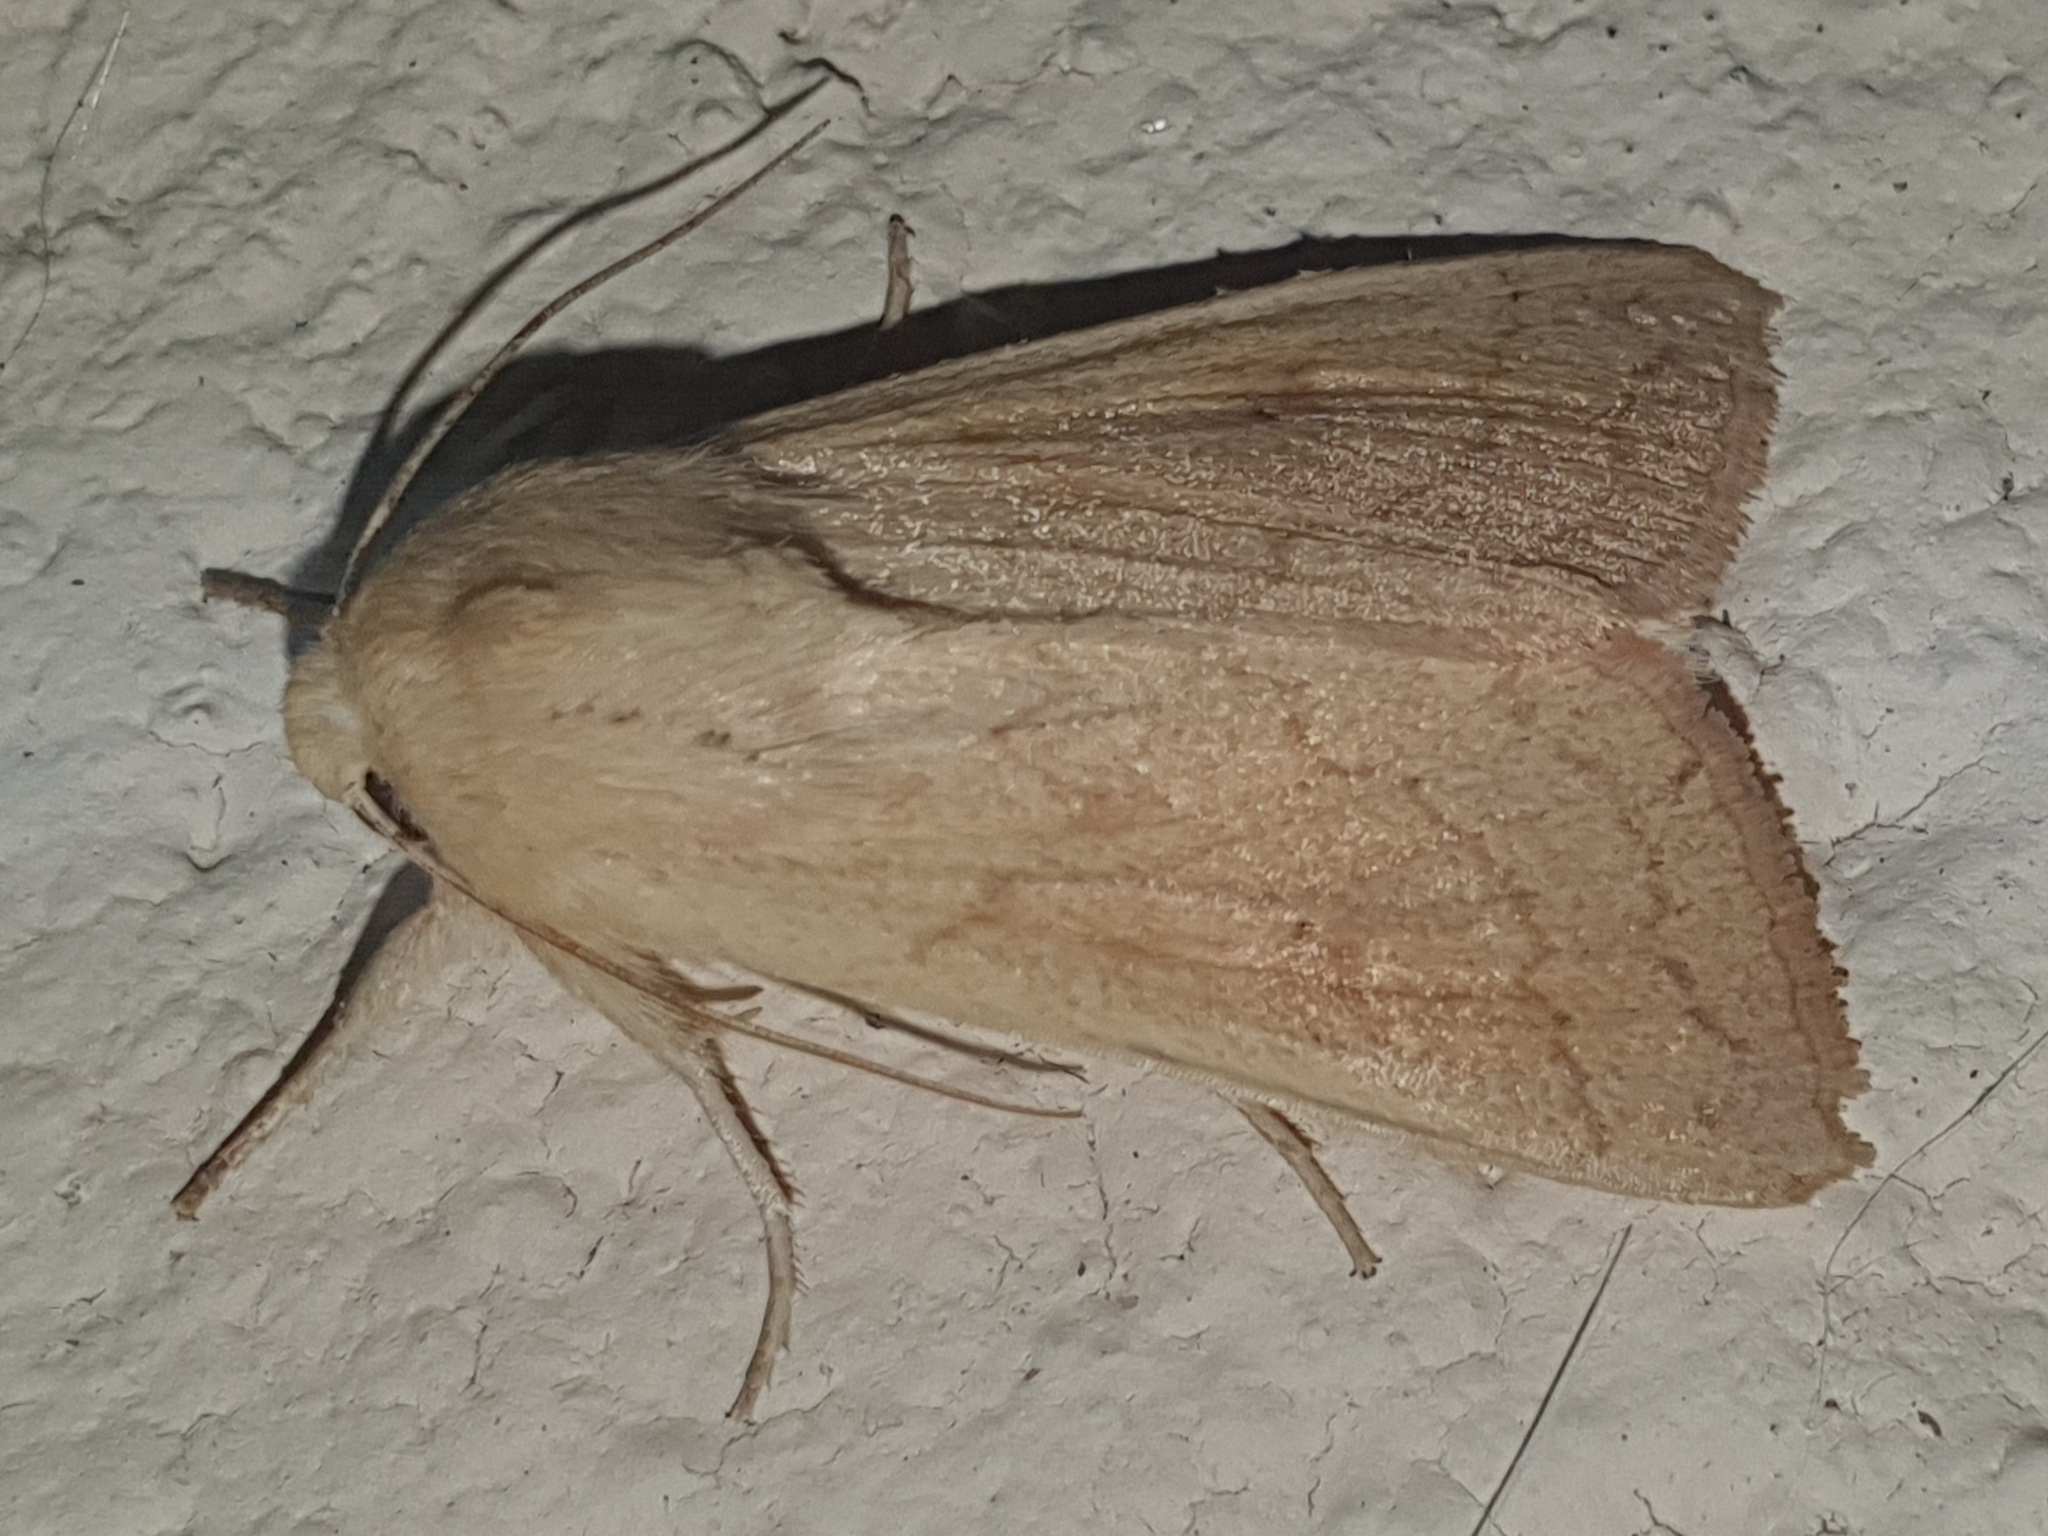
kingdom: Animalia
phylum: Arthropoda
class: Insecta
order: Lepidoptera
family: Noctuidae
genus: Mythimna
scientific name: Mythimna vitellina
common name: Delicate
